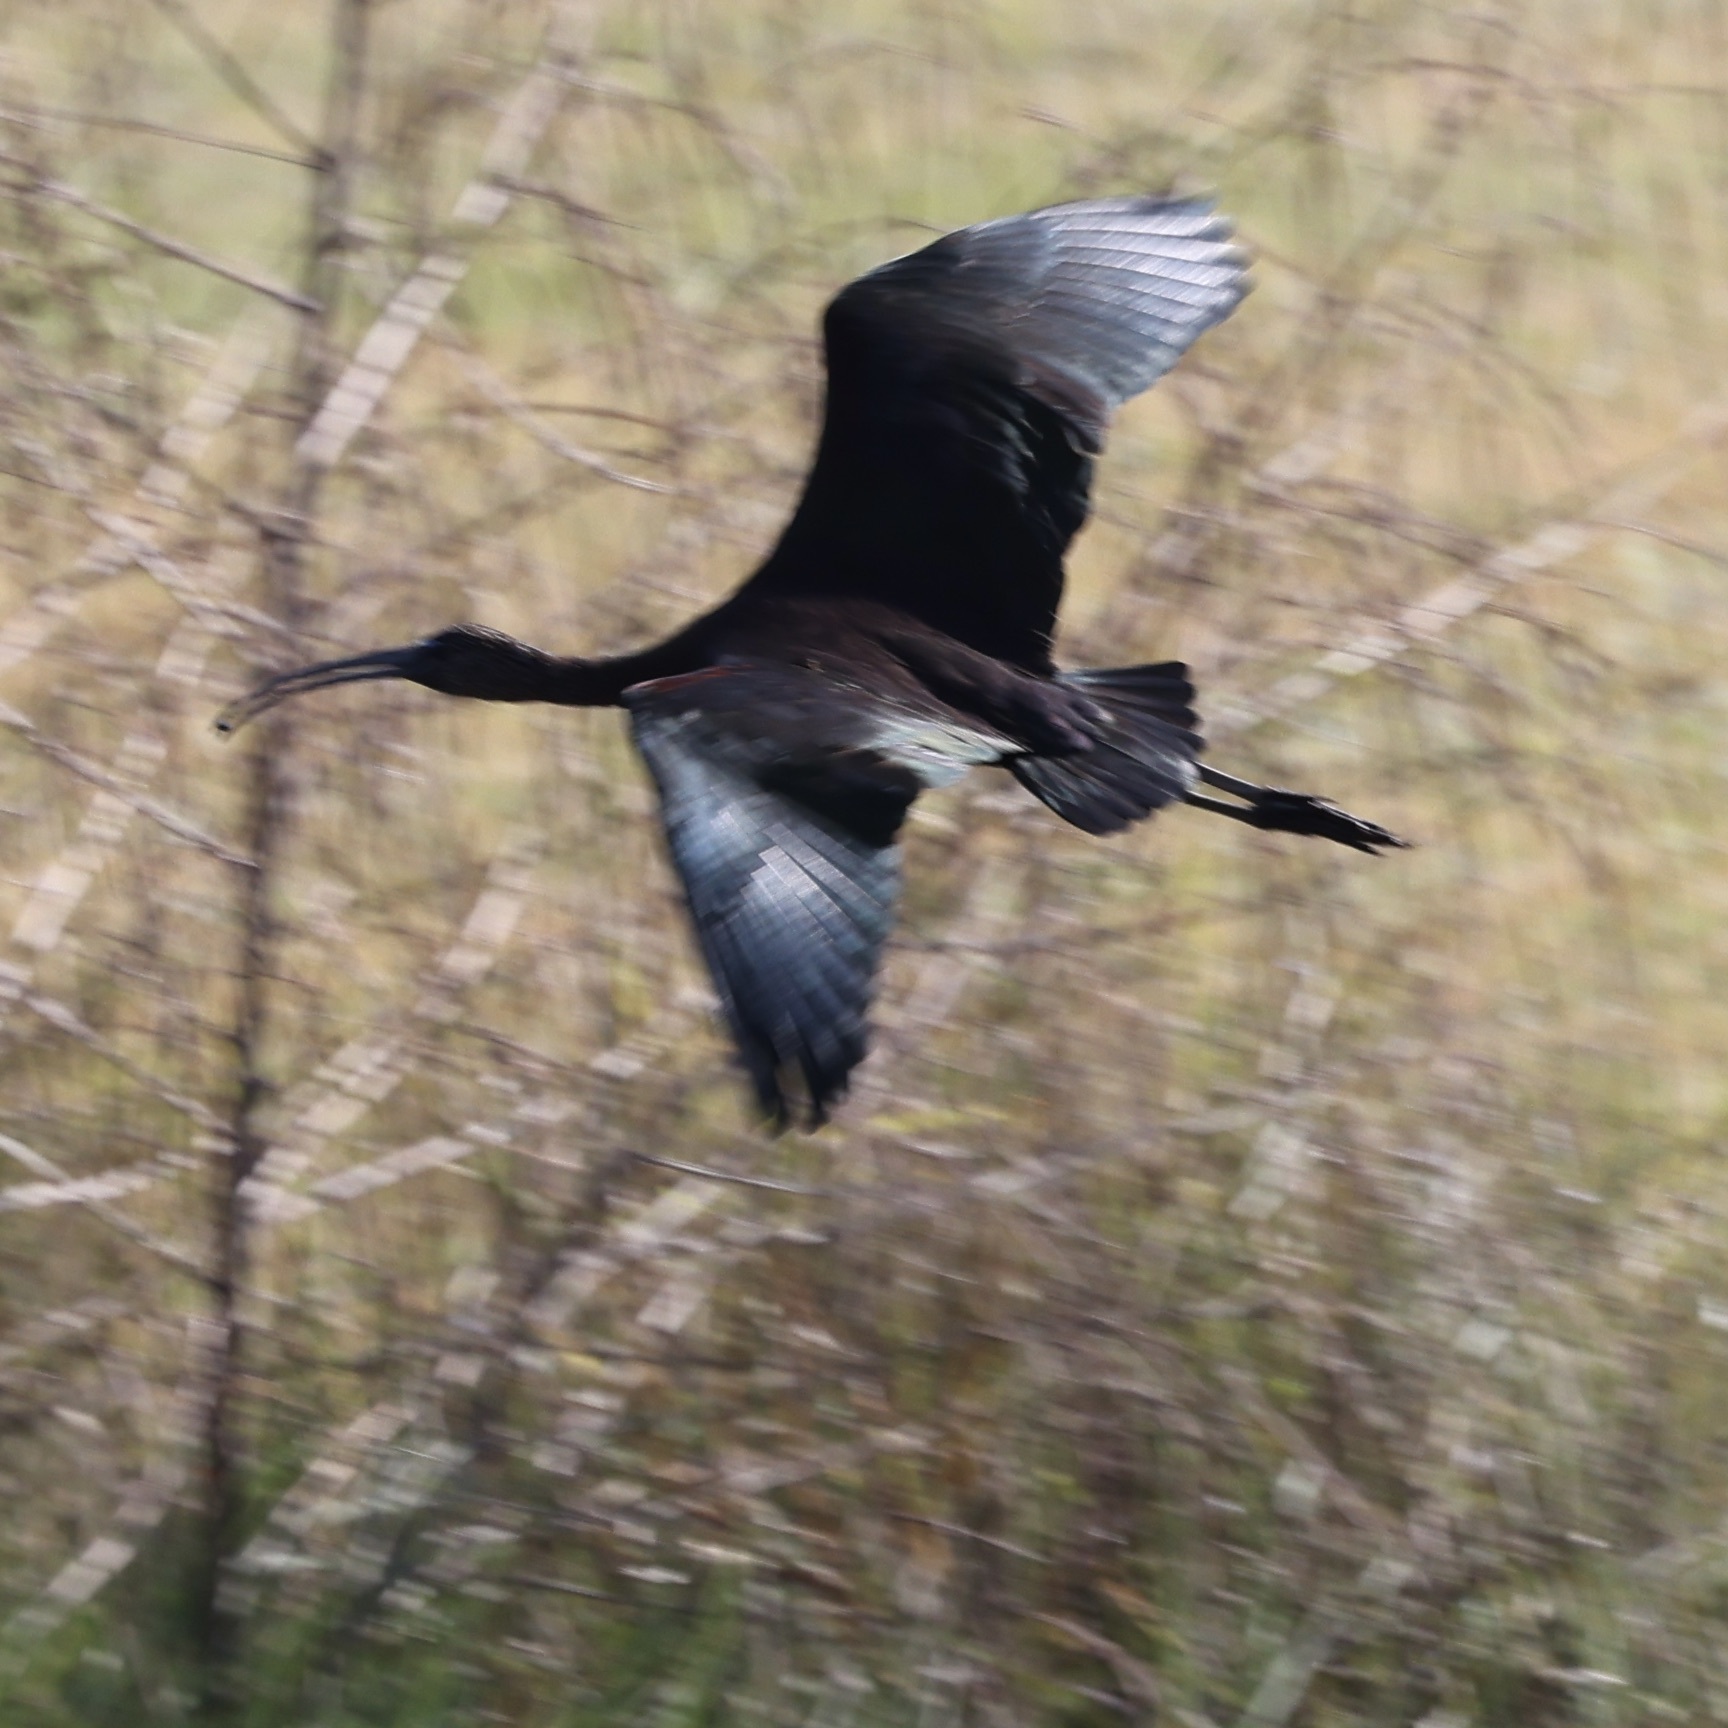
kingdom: Animalia
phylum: Chordata
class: Aves
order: Pelecaniformes
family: Threskiornithidae
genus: Plegadis
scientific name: Plegadis falcinellus
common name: Glossy ibis
